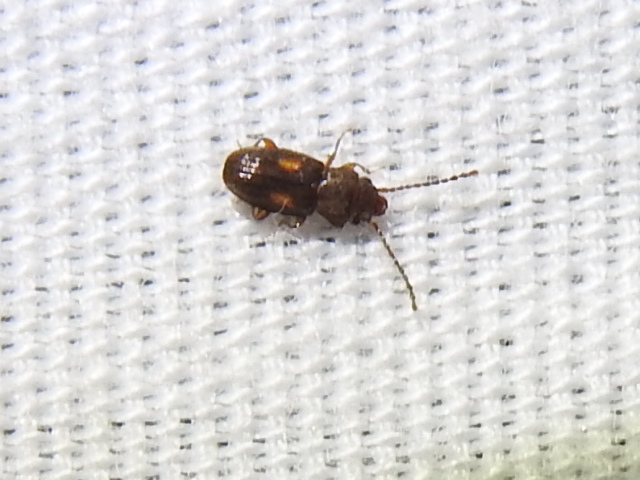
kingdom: Animalia
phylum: Arthropoda
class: Insecta
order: Coleoptera
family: Laemophloeidae
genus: Laemophloeus
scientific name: Laemophloeus biguttatus
